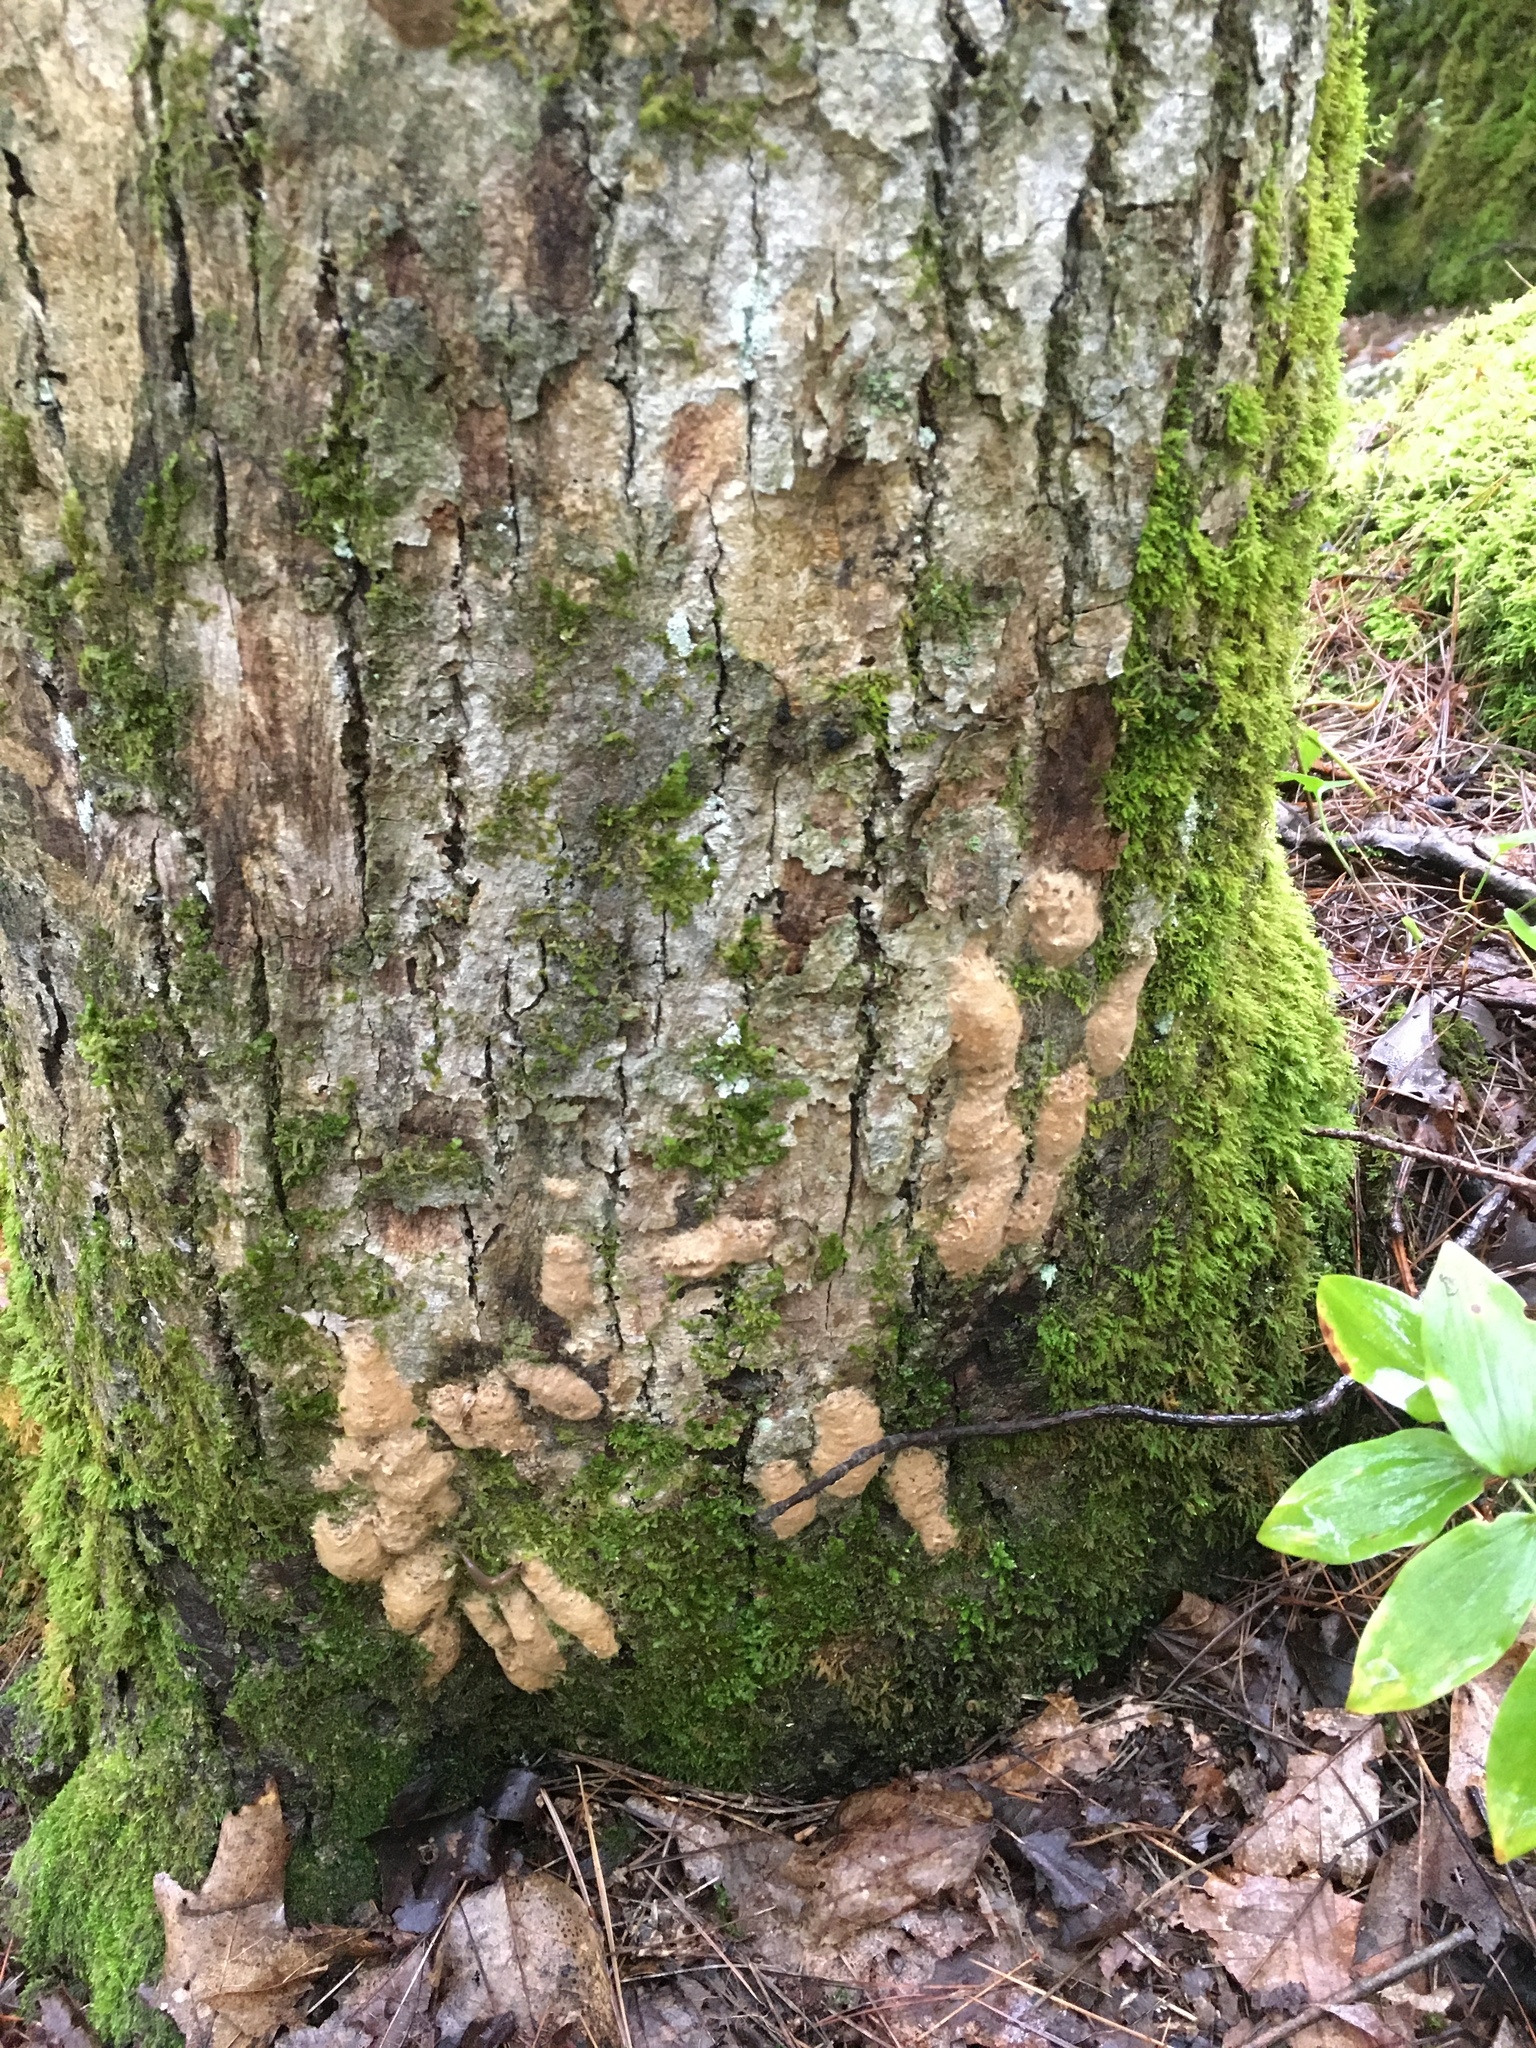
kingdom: Animalia
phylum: Arthropoda
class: Insecta
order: Lepidoptera
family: Erebidae
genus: Lymantria
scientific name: Lymantria dispar
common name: Gypsy moth
